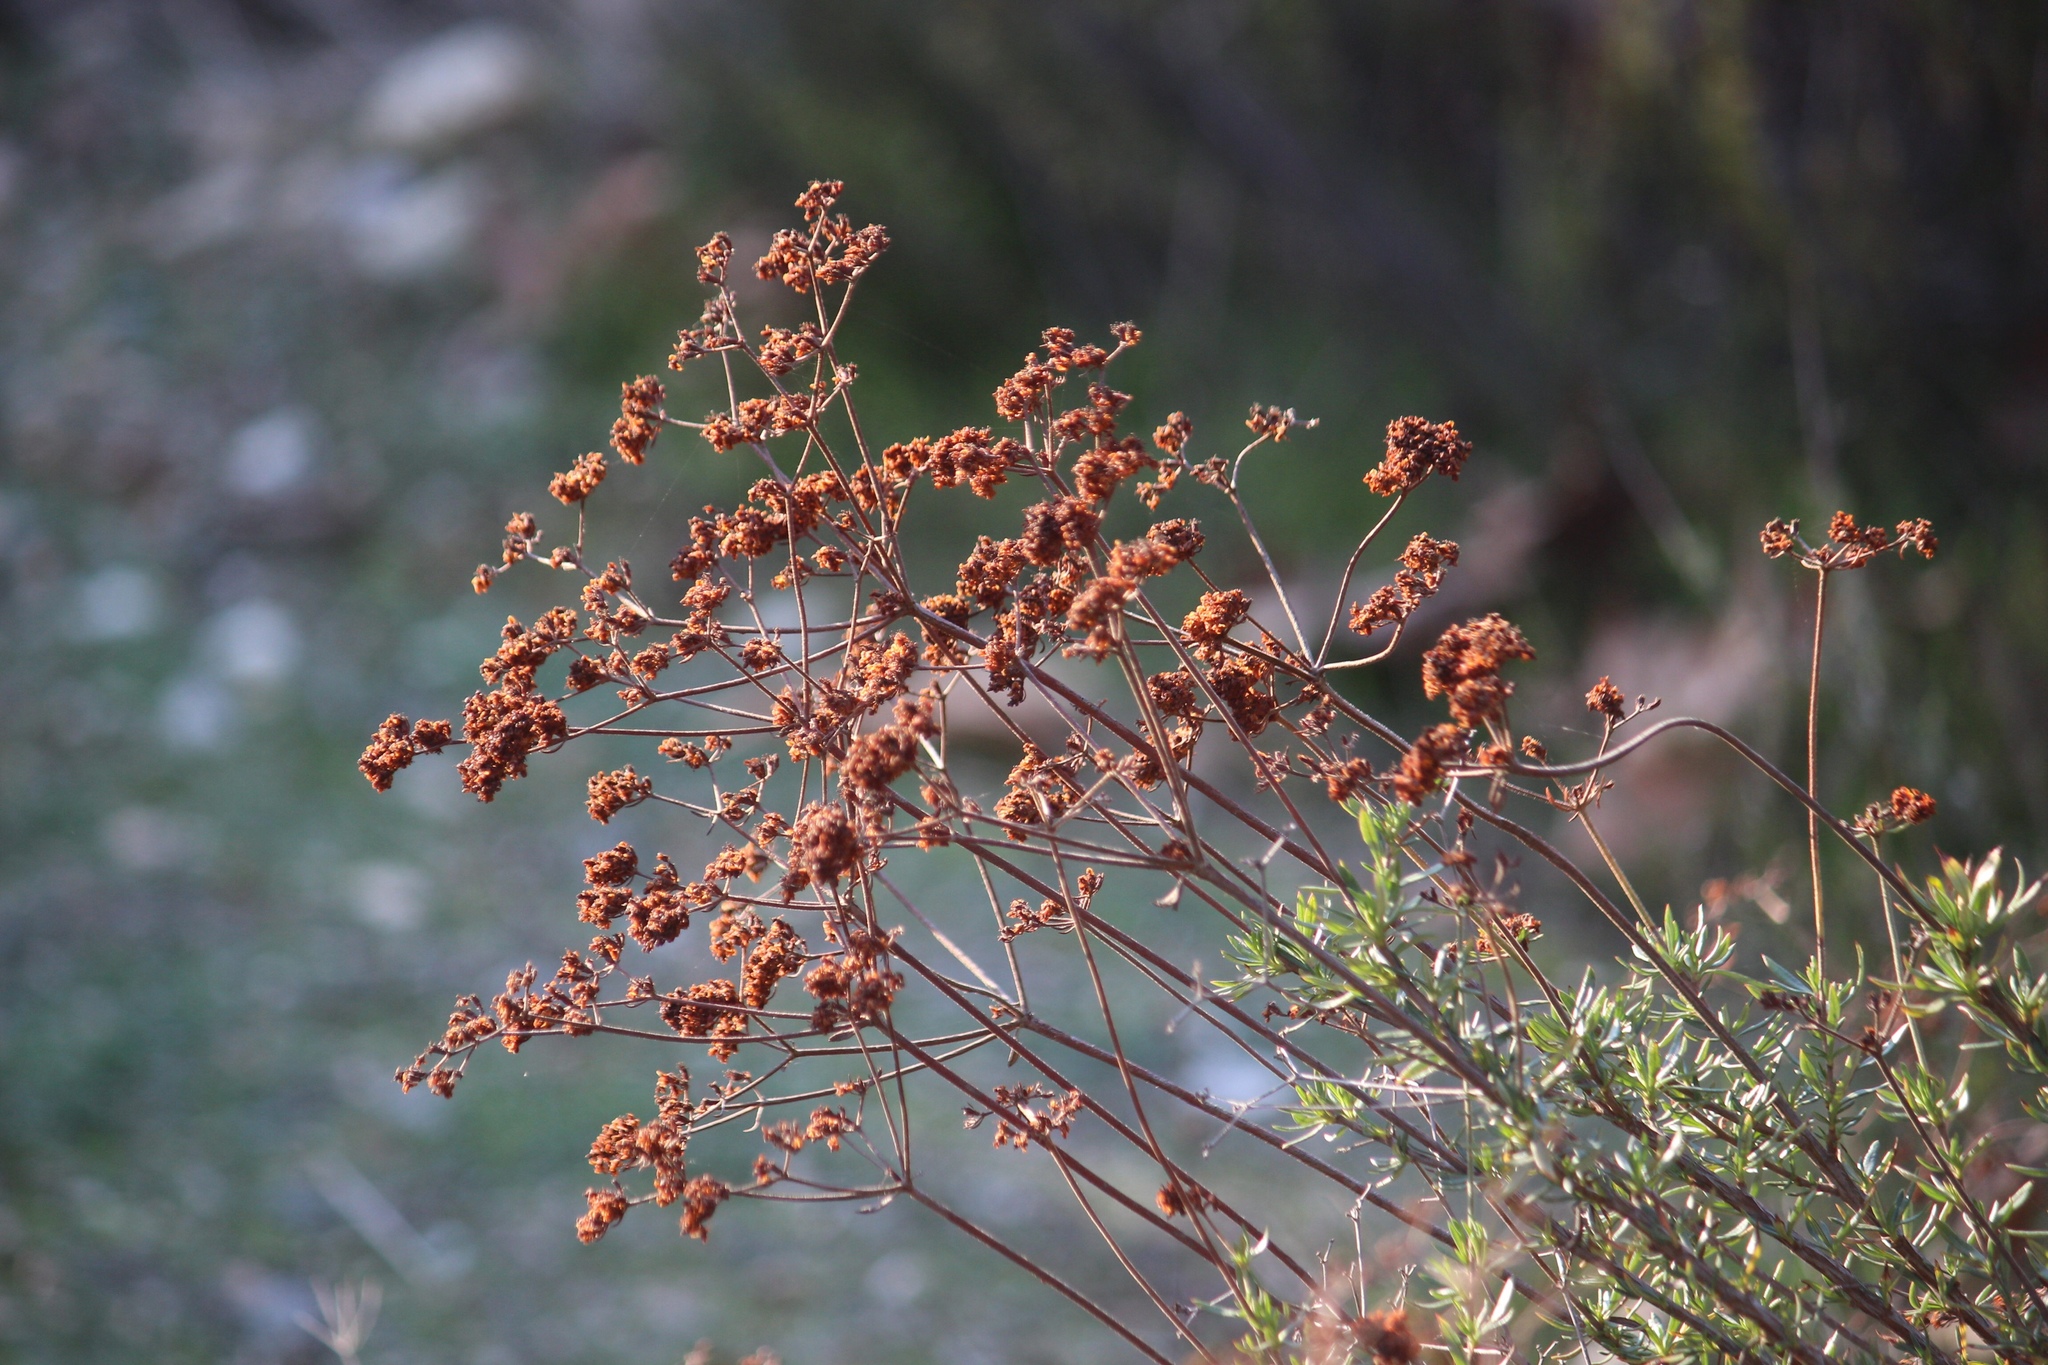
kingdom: Plantae
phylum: Tracheophyta
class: Magnoliopsida
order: Caryophyllales
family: Polygonaceae
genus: Eriogonum
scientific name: Eriogonum fasciculatum
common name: California wild buckwheat
